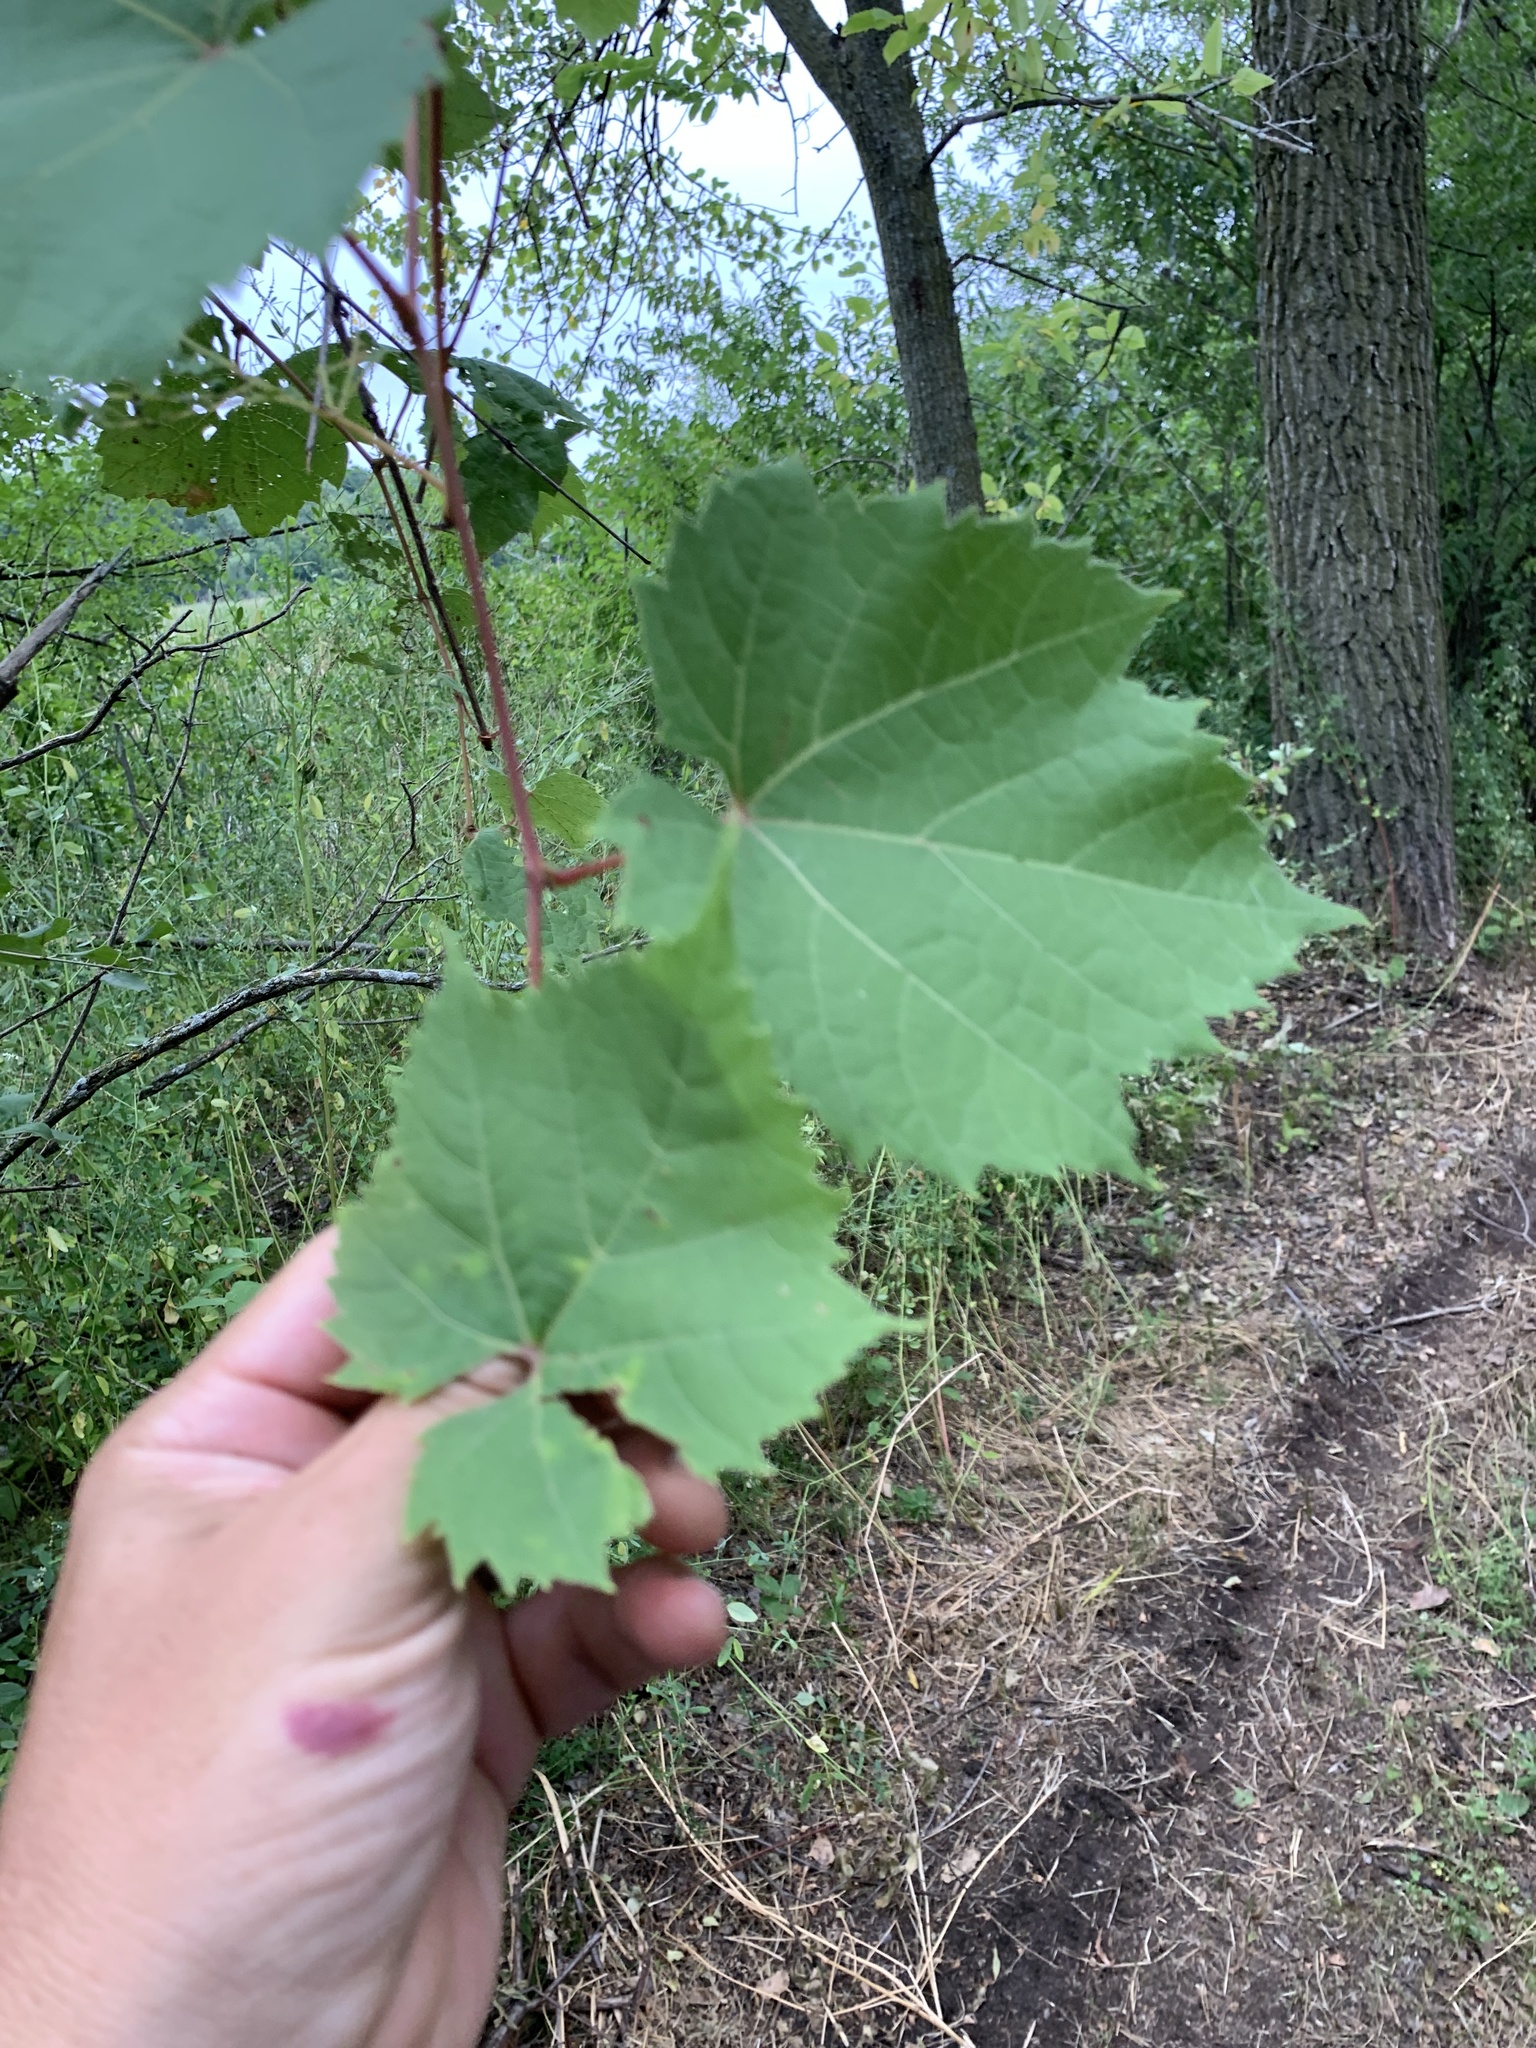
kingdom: Plantae
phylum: Tracheophyta
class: Magnoliopsida
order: Vitales
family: Vitaceae
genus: Vitis
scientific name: Vitis riparia
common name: Frost grape
